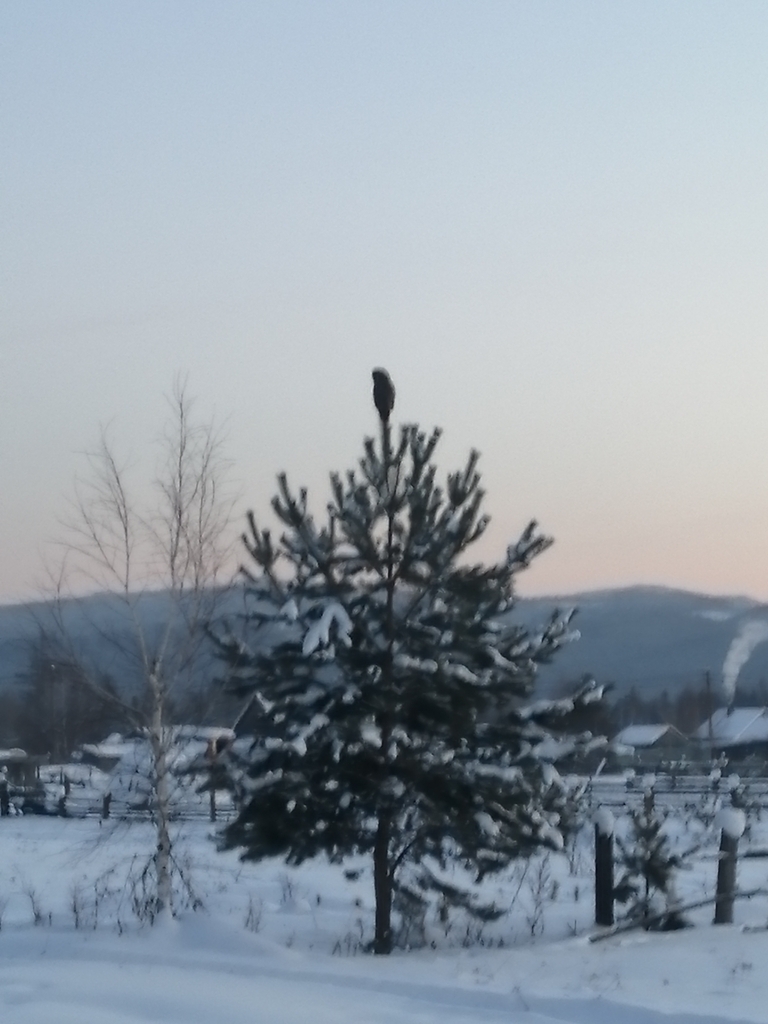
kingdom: Animalia
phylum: Chordata
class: Aves
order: Strigiformes
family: Strigidae
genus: Strix
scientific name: Strix nebulosa
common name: Great grey owl
